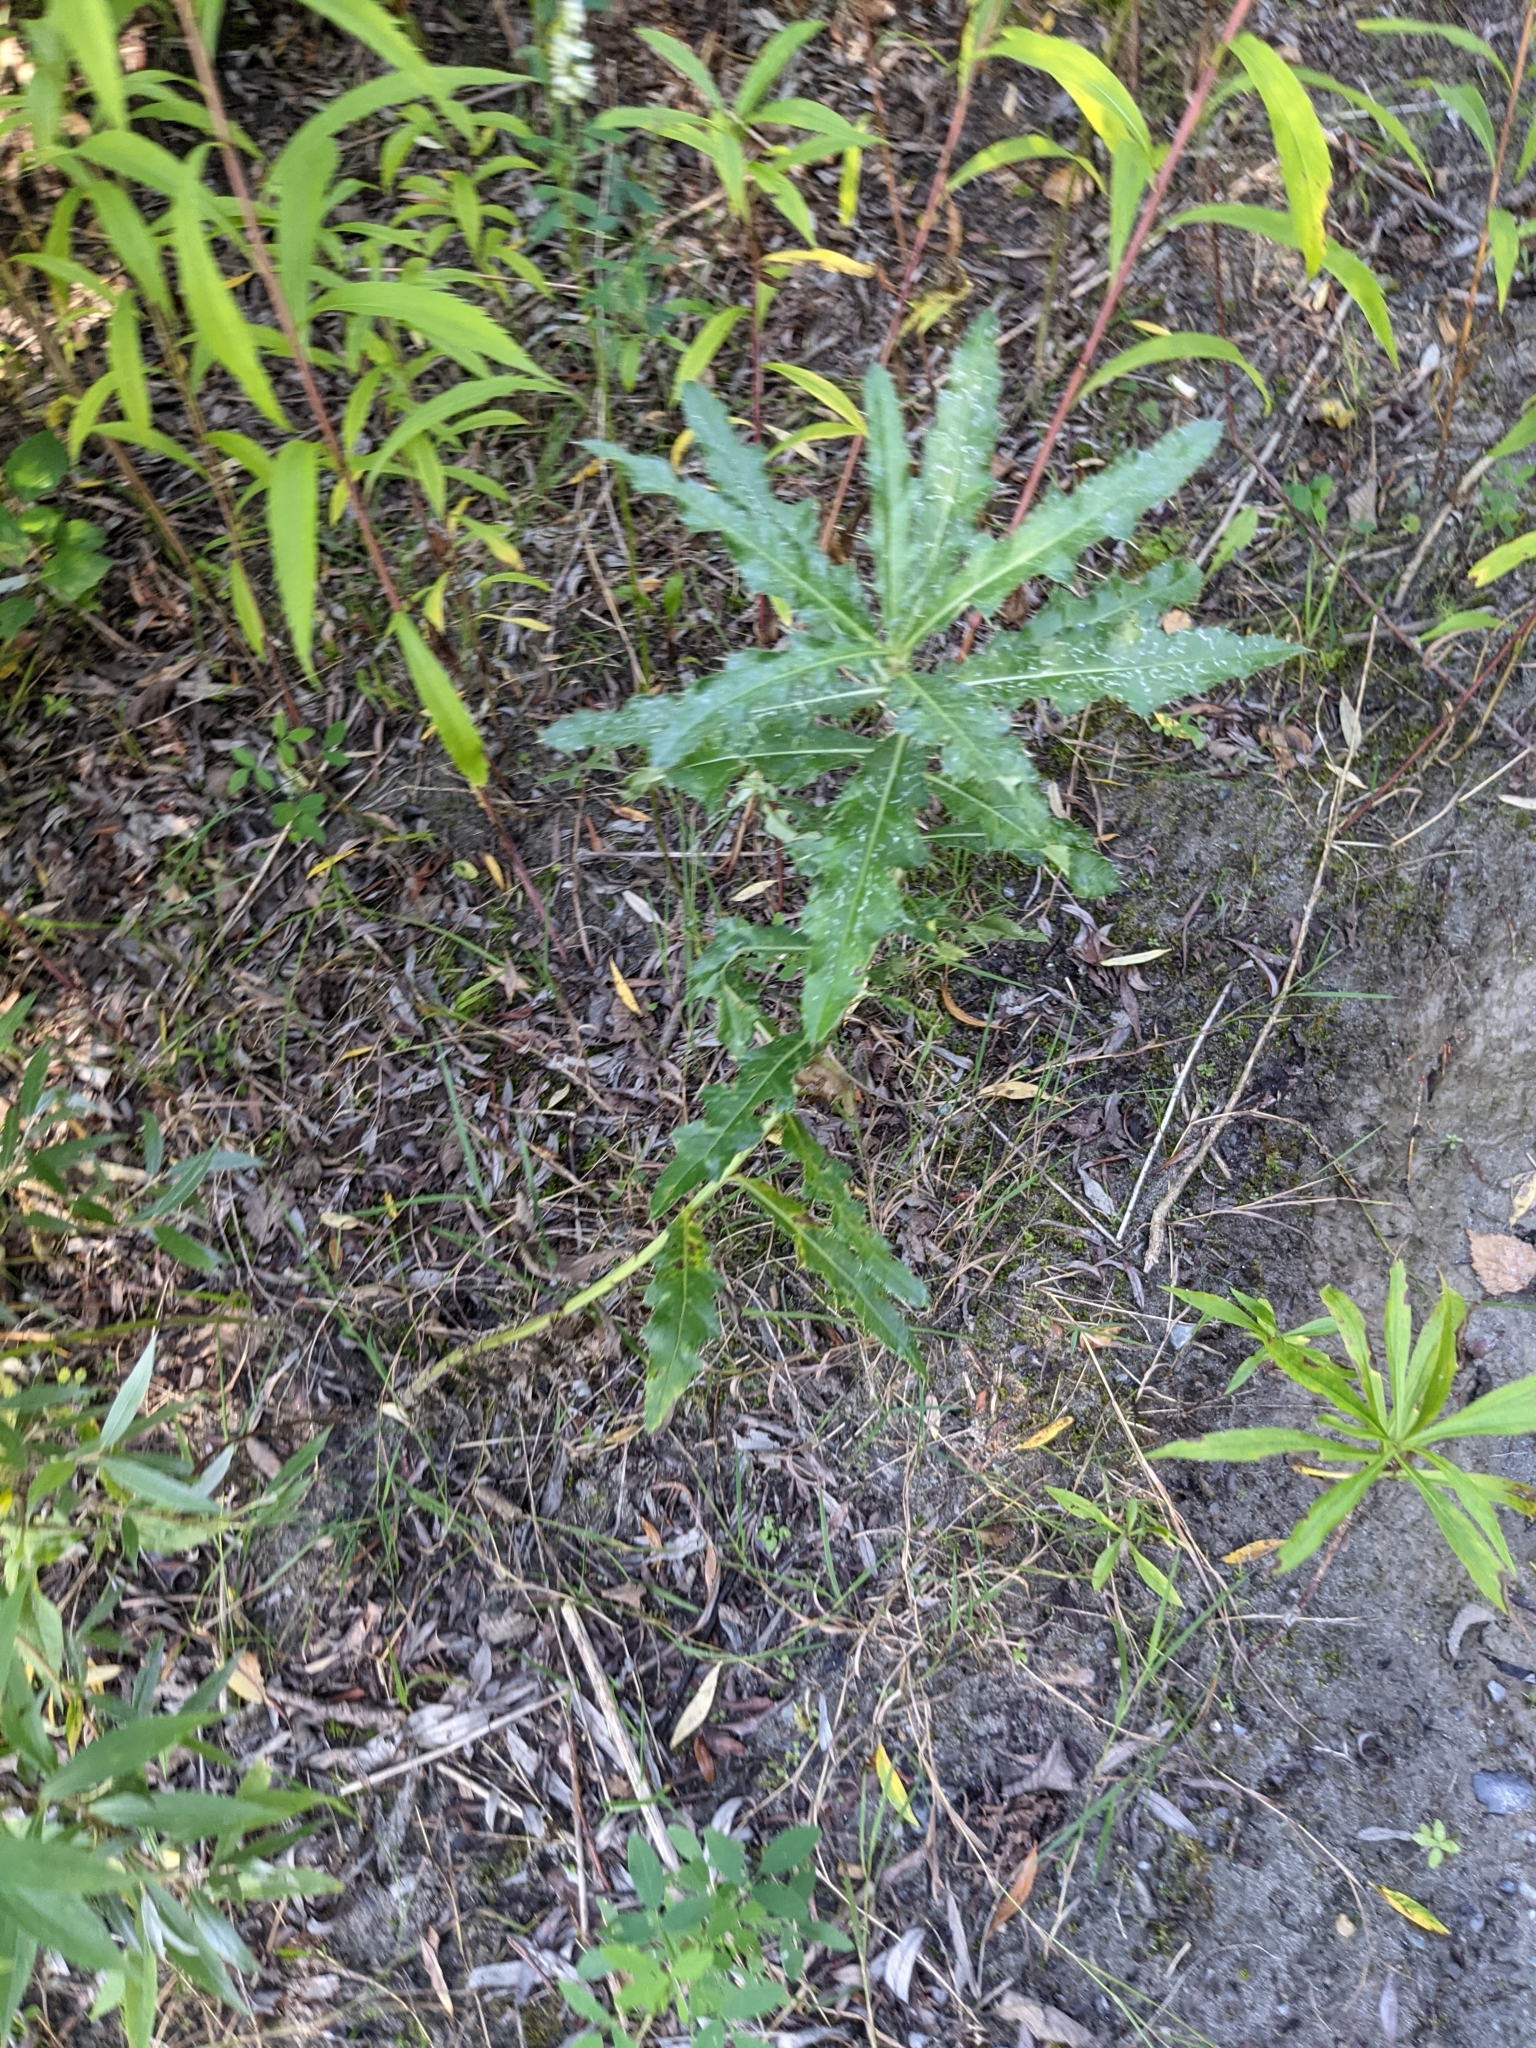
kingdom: Plantae
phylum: Tracheophyta
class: Magnoliopsida
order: Asterales
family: Asteraceae
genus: Cirsium
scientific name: Cirsium arvense
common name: Creeping thistle
